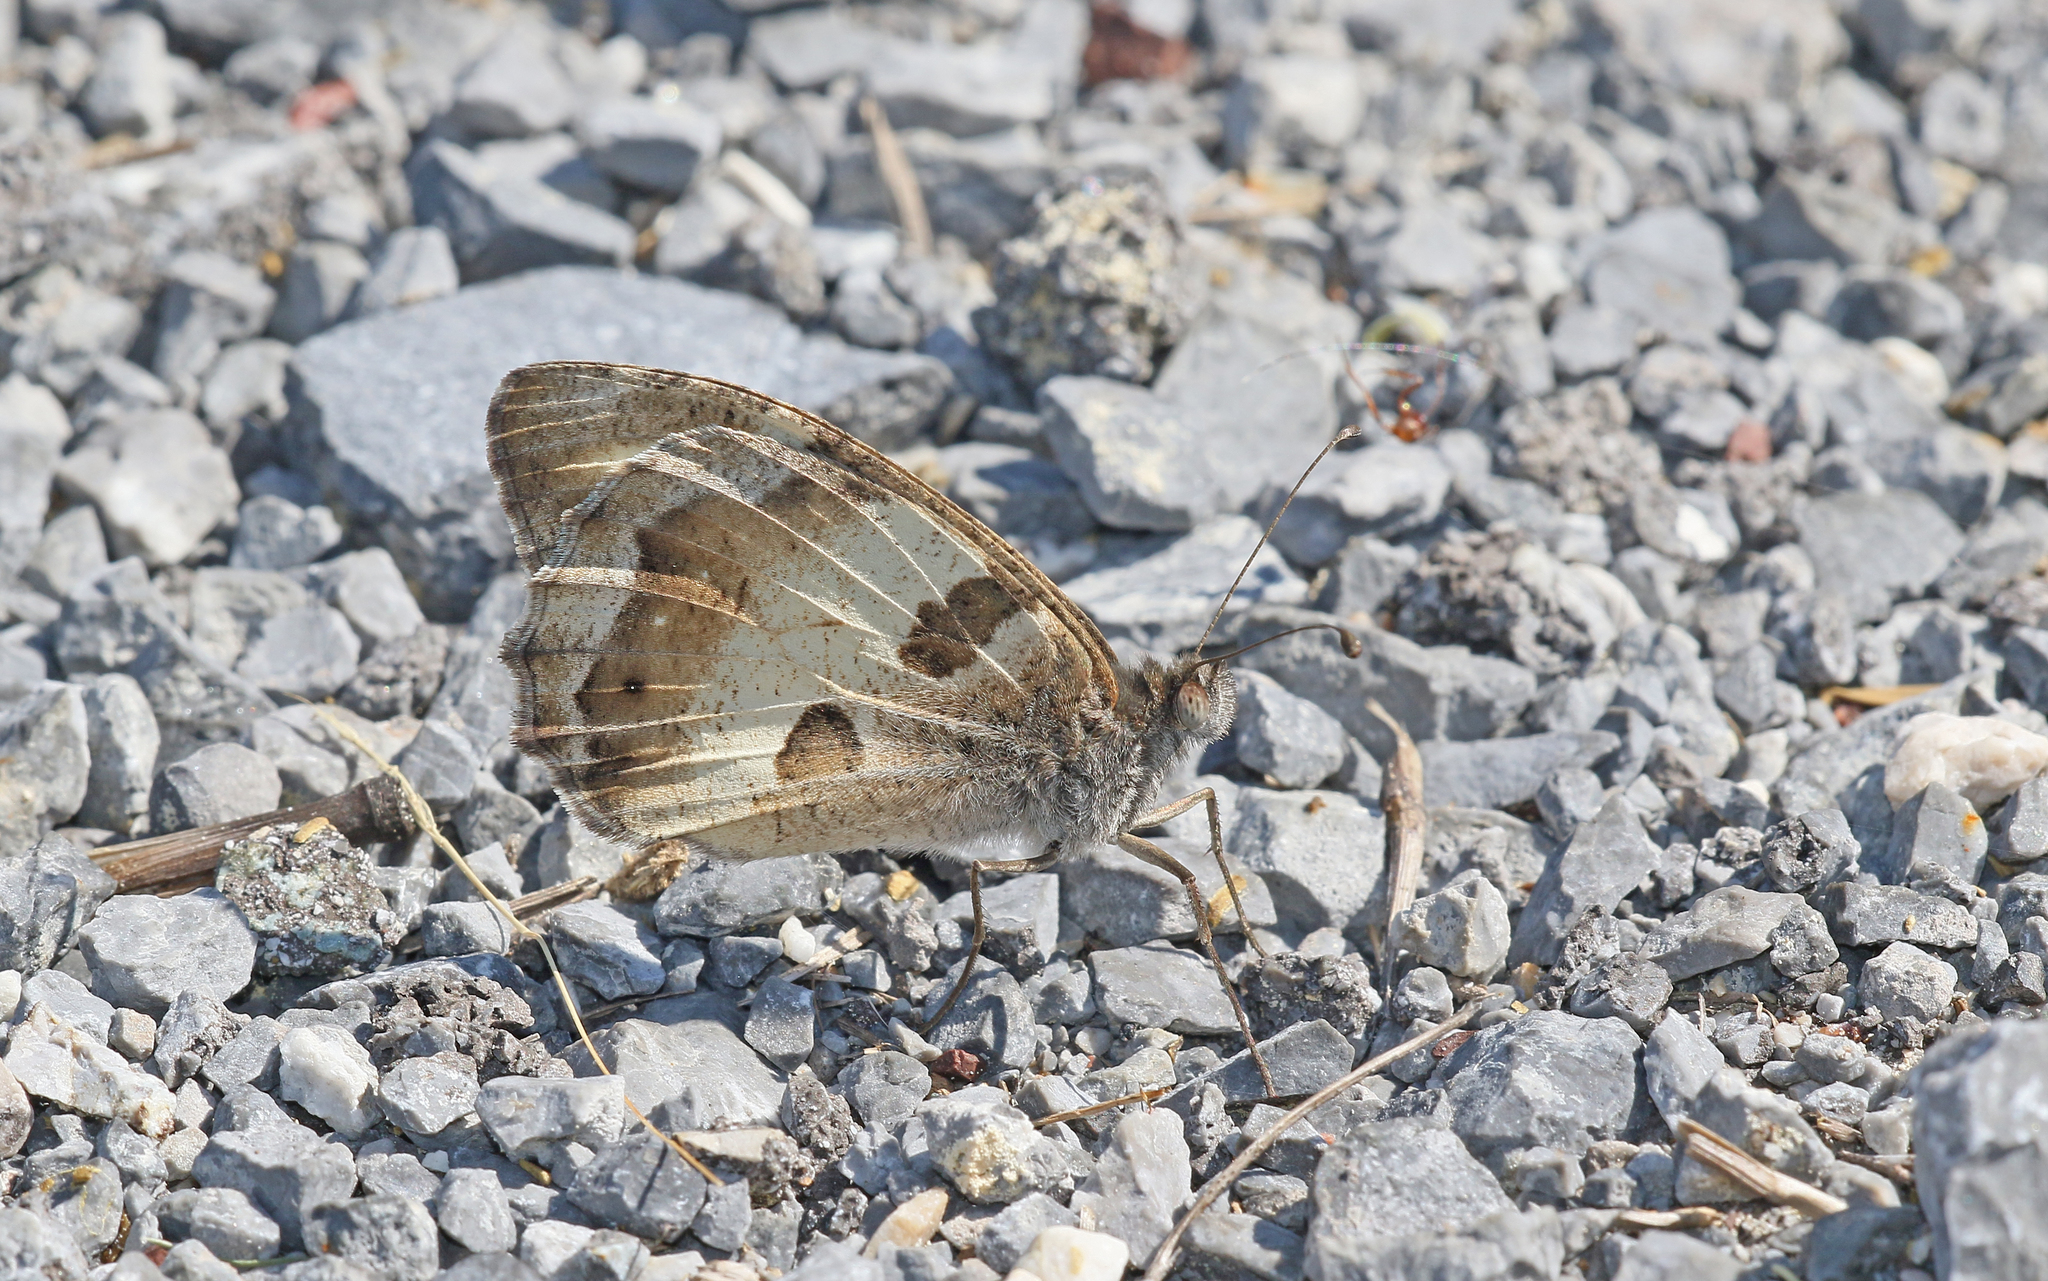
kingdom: Animalia
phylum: Arthropoda
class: Insecta
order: Lepidoptera
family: Nymphalidae
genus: Satyrus
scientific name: Satyrus briseis
